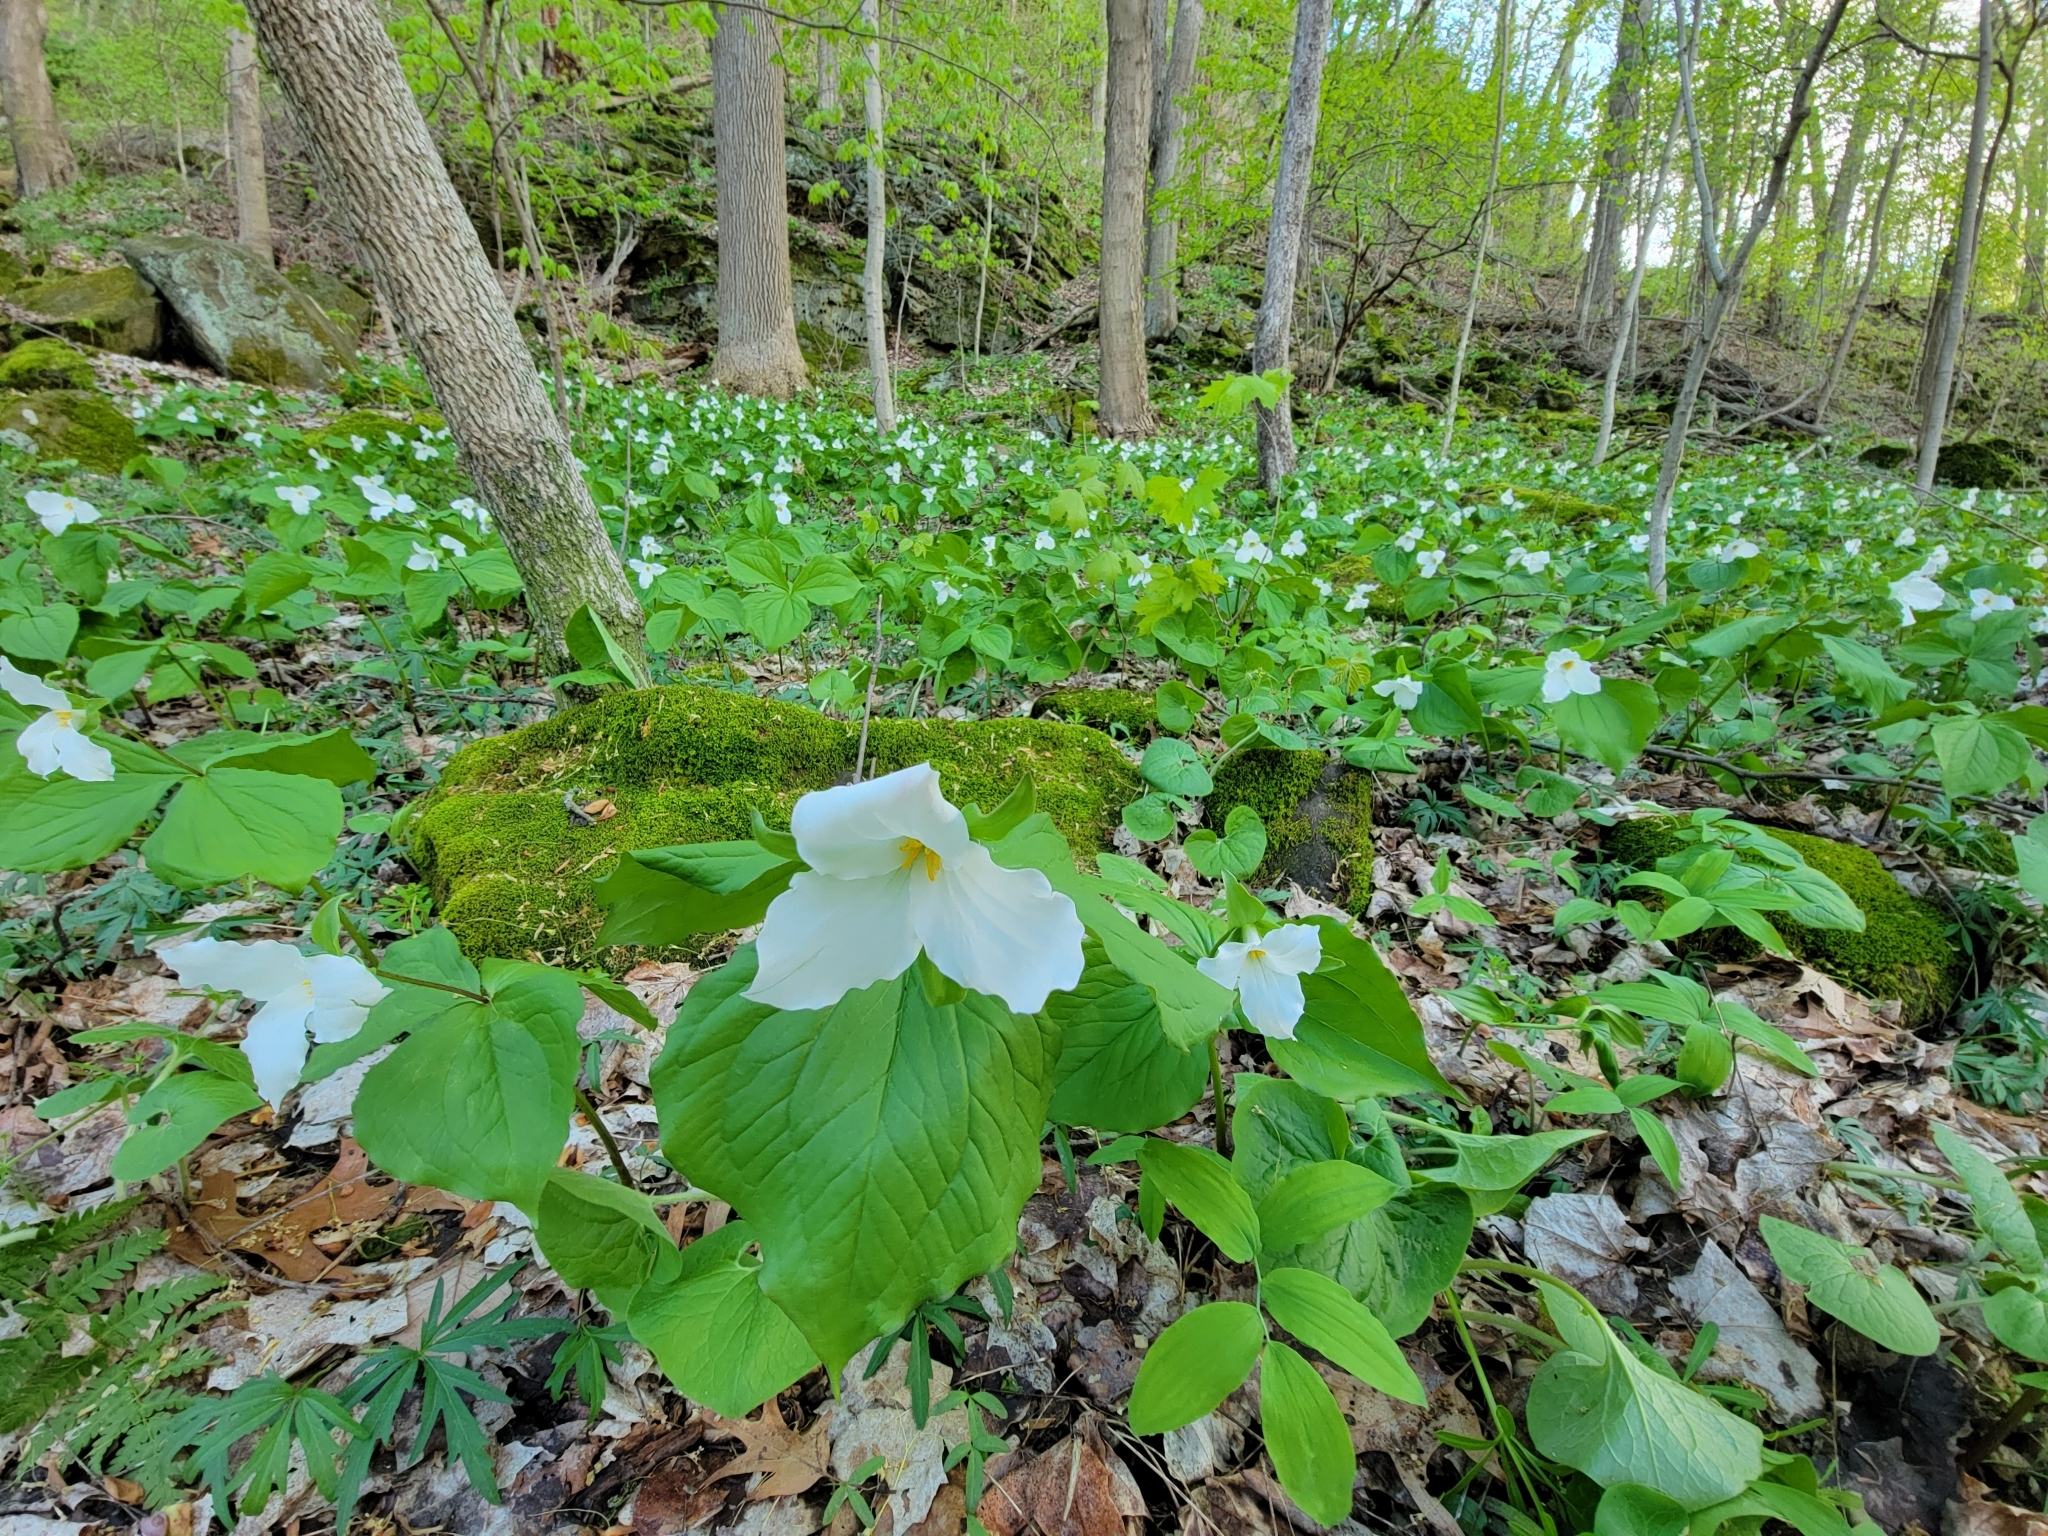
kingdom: Plantae
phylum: Tracheophyta
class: Liliopsida
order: Liliales
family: Melanthiaceae
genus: Trillium
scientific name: Trillium grandiflorum
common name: Great white trillium
